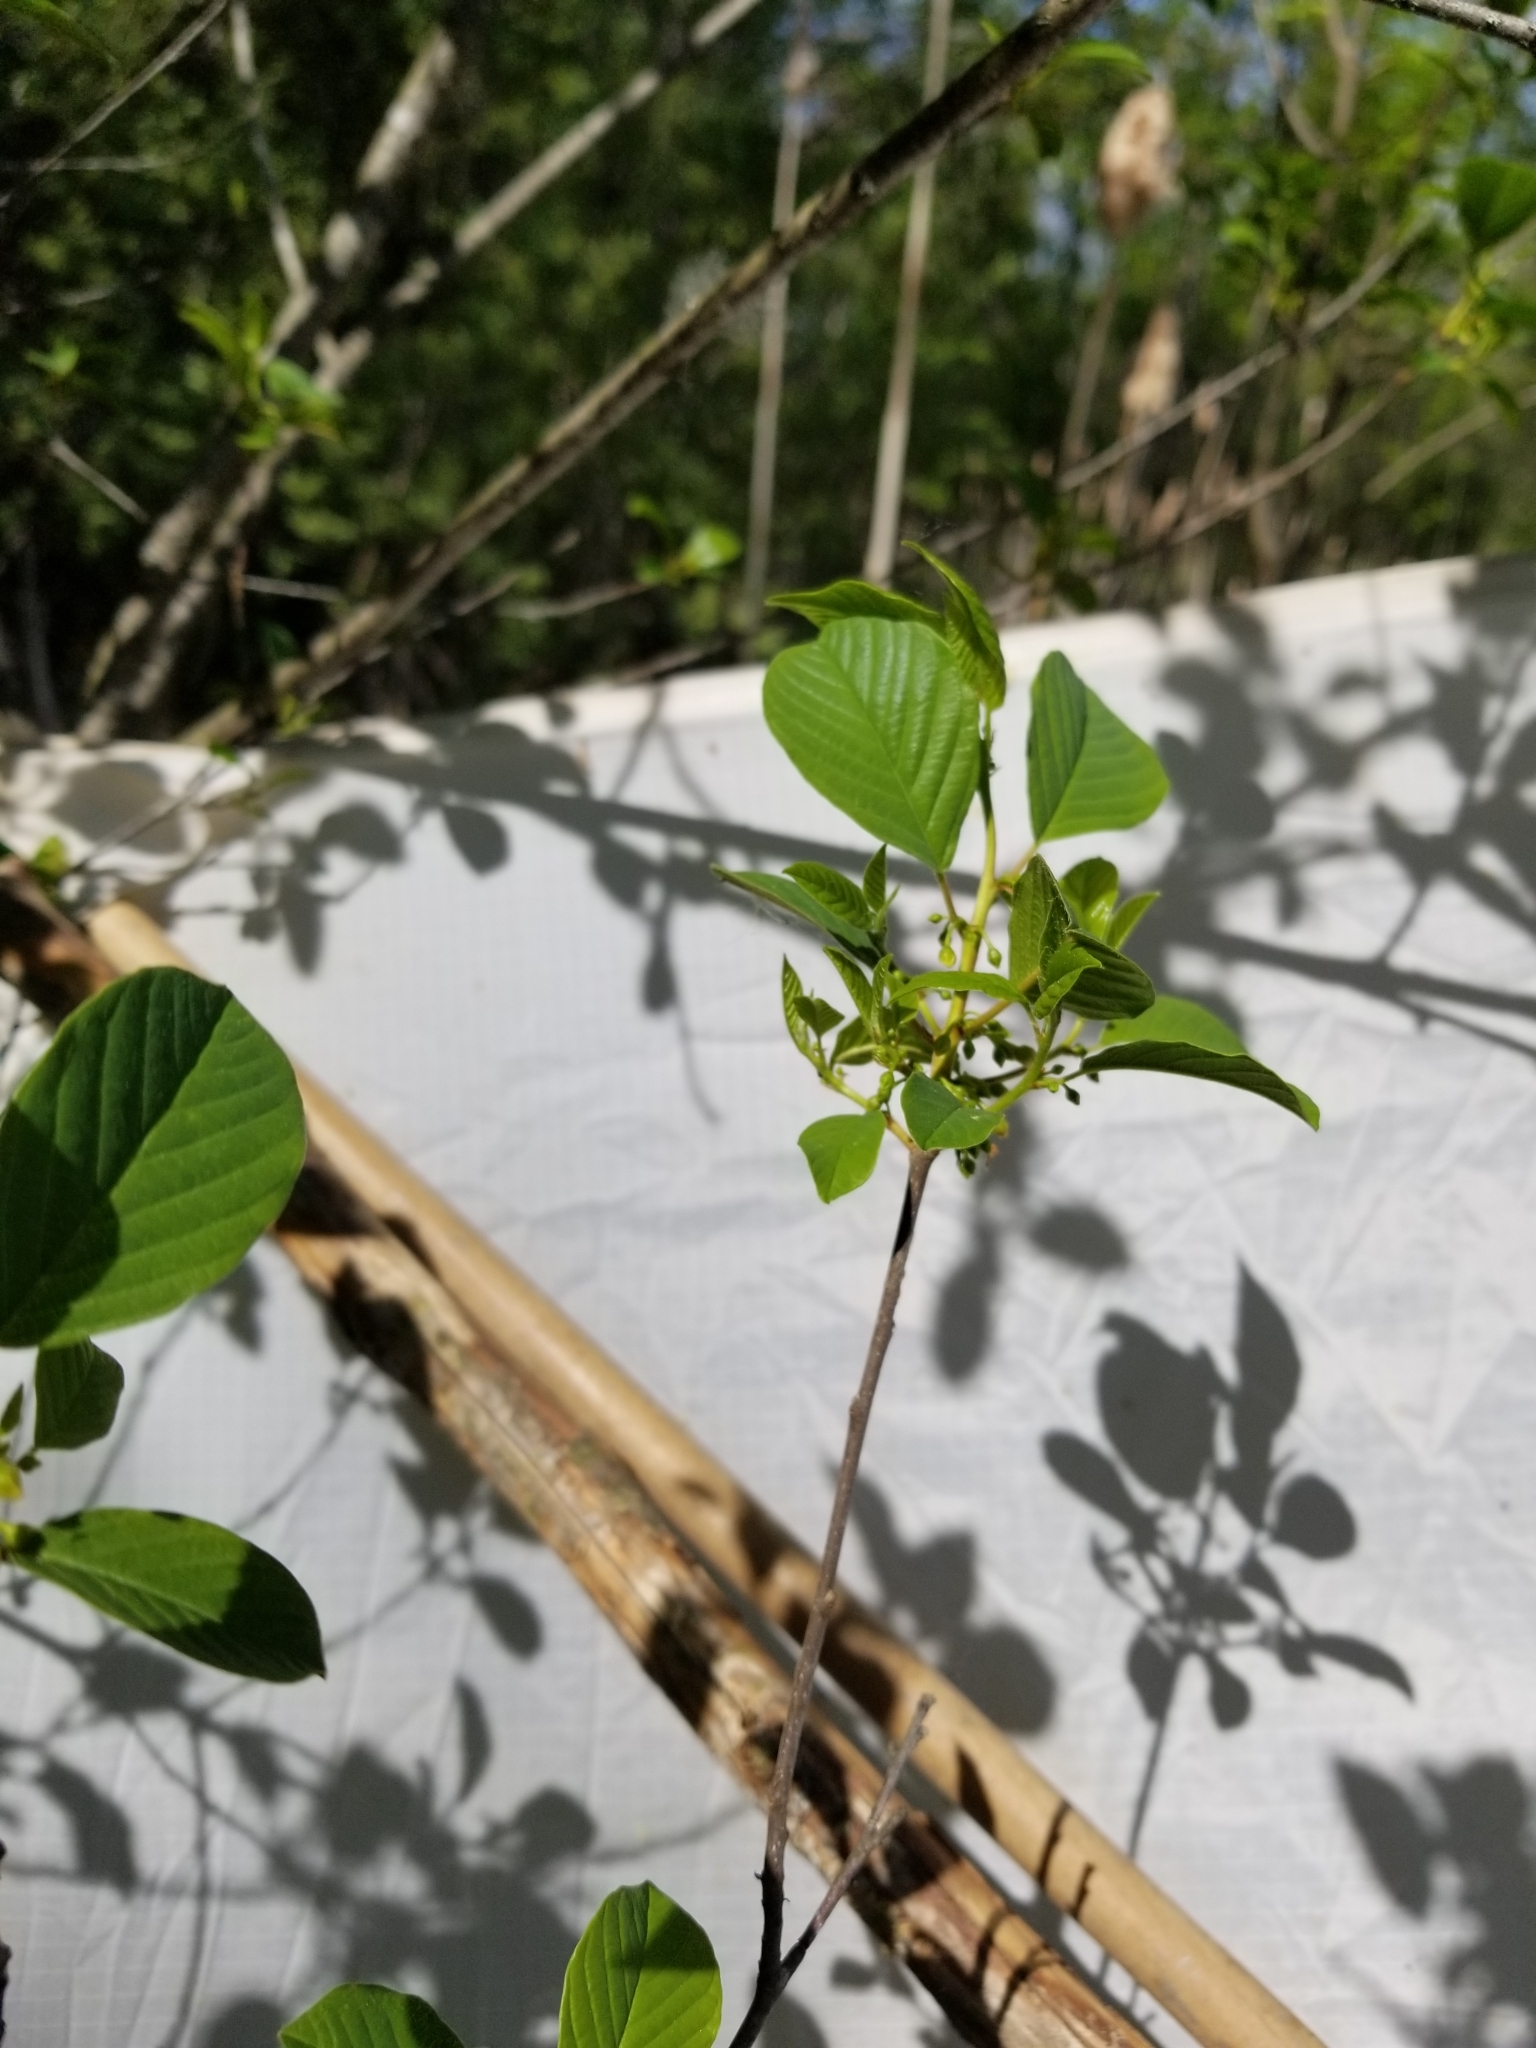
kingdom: Plantae
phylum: Tracheophyta
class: Magnoliopsida
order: Rosales
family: Rhamnaceae
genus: Frangula
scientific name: Frangula alnus
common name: Alder buckthorn
